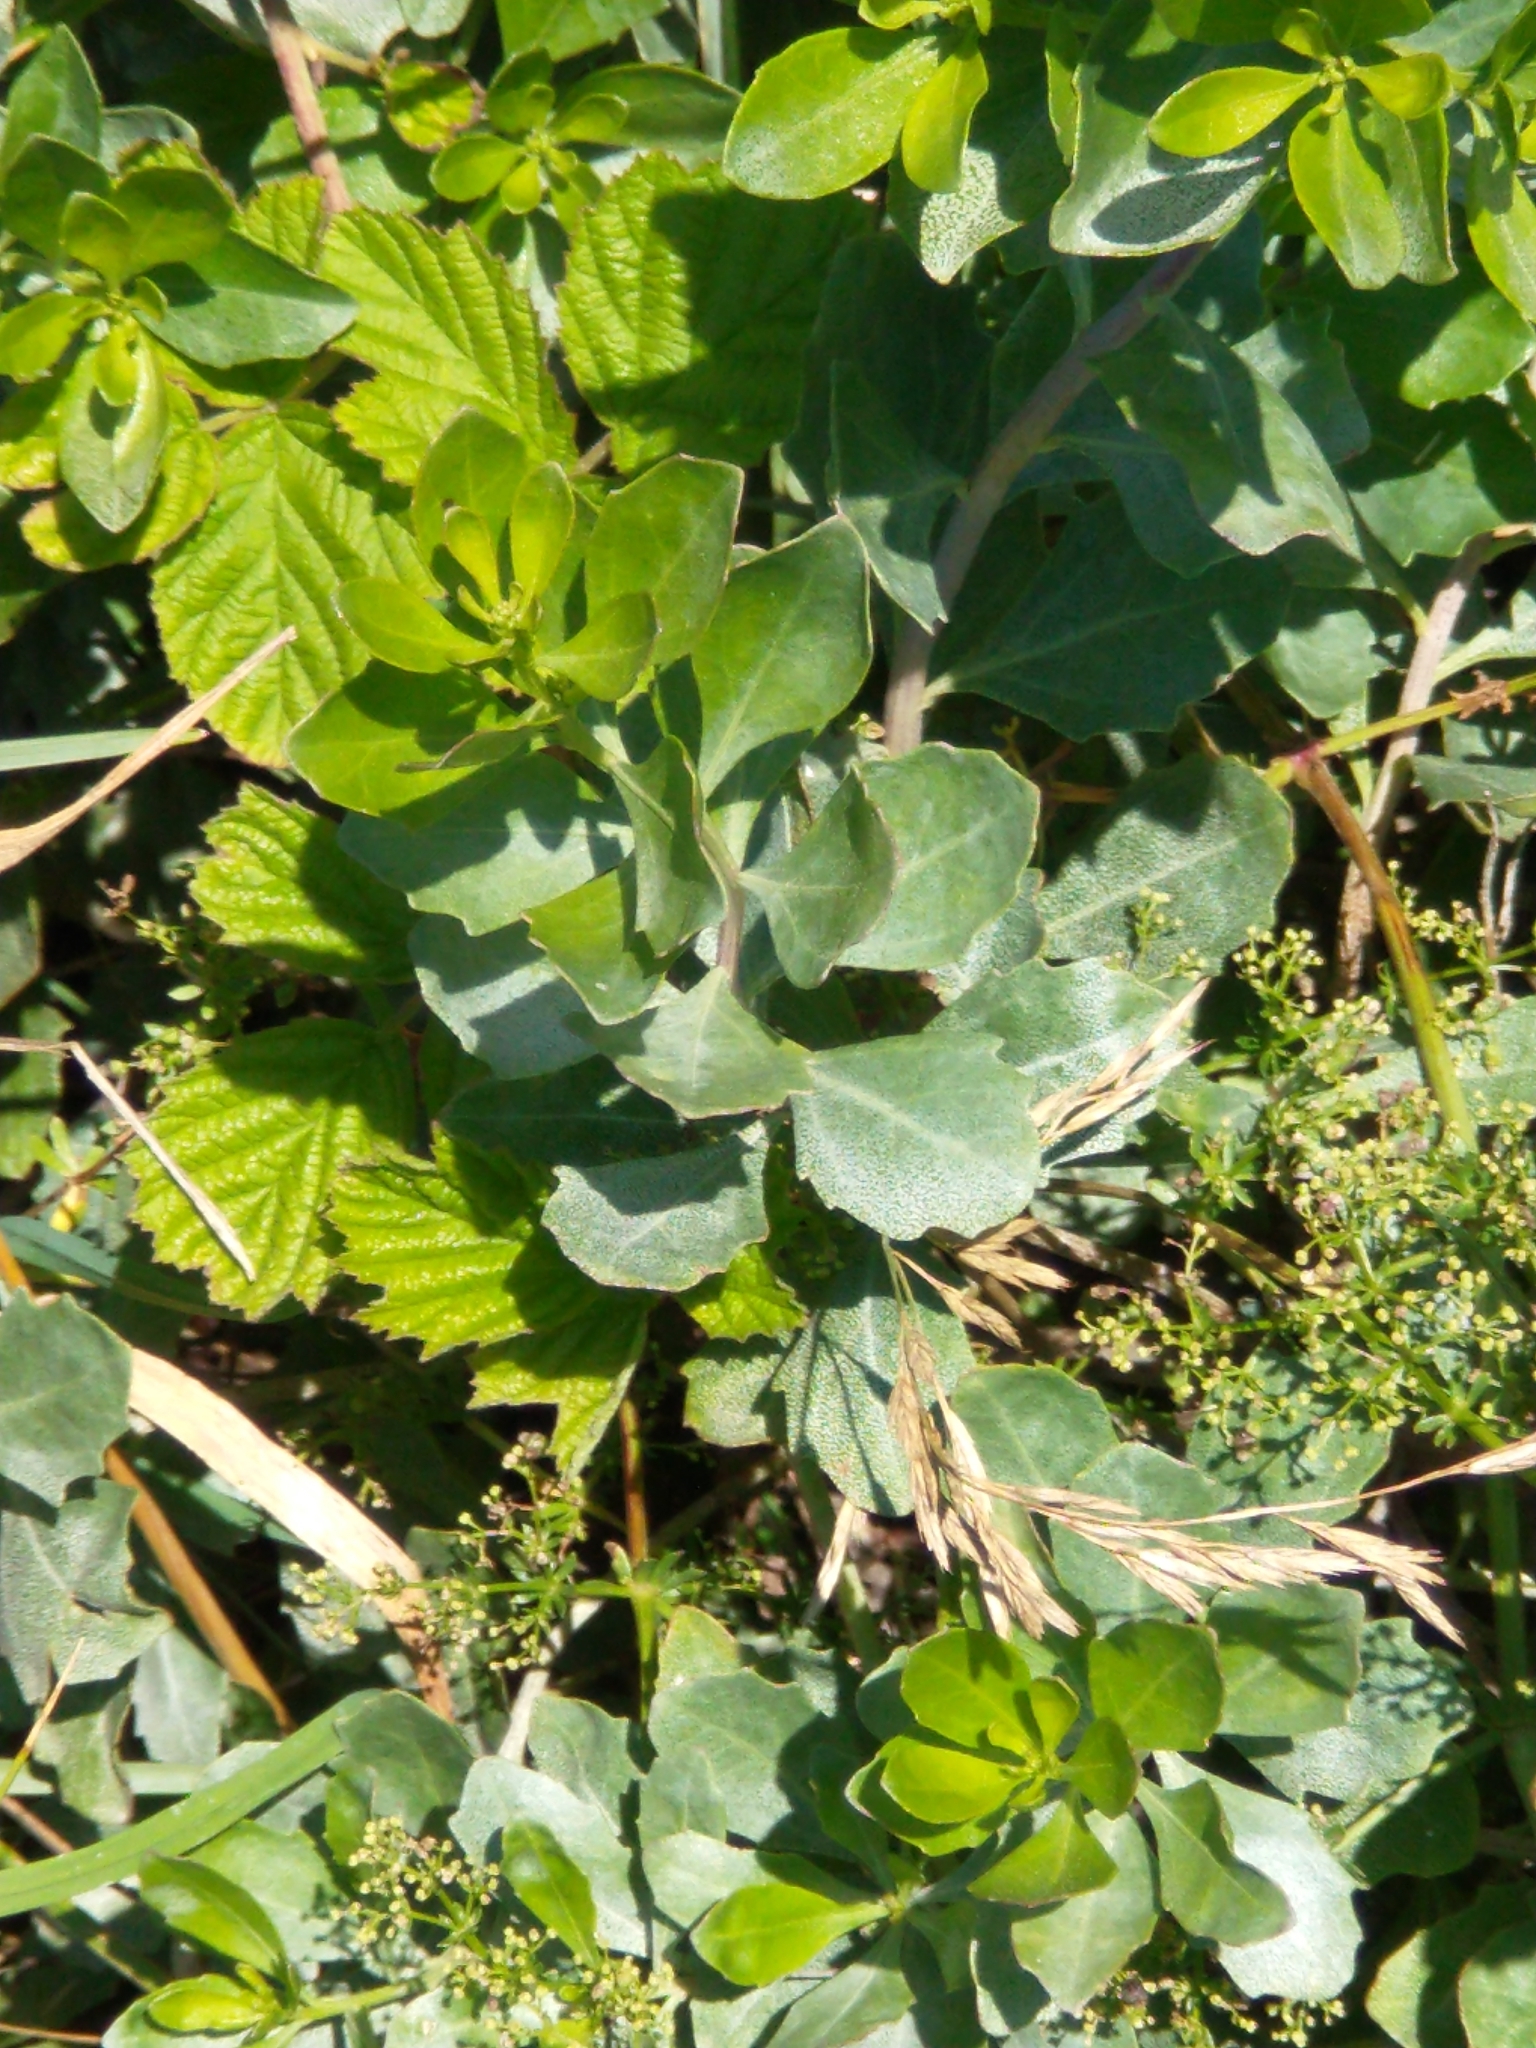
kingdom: Plantae
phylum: Tracheophyta
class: Magnoliopsida
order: Asterales
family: Asteraceae
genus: Baccharis
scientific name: Baccharis halimifolia
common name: Eastern baccharis
